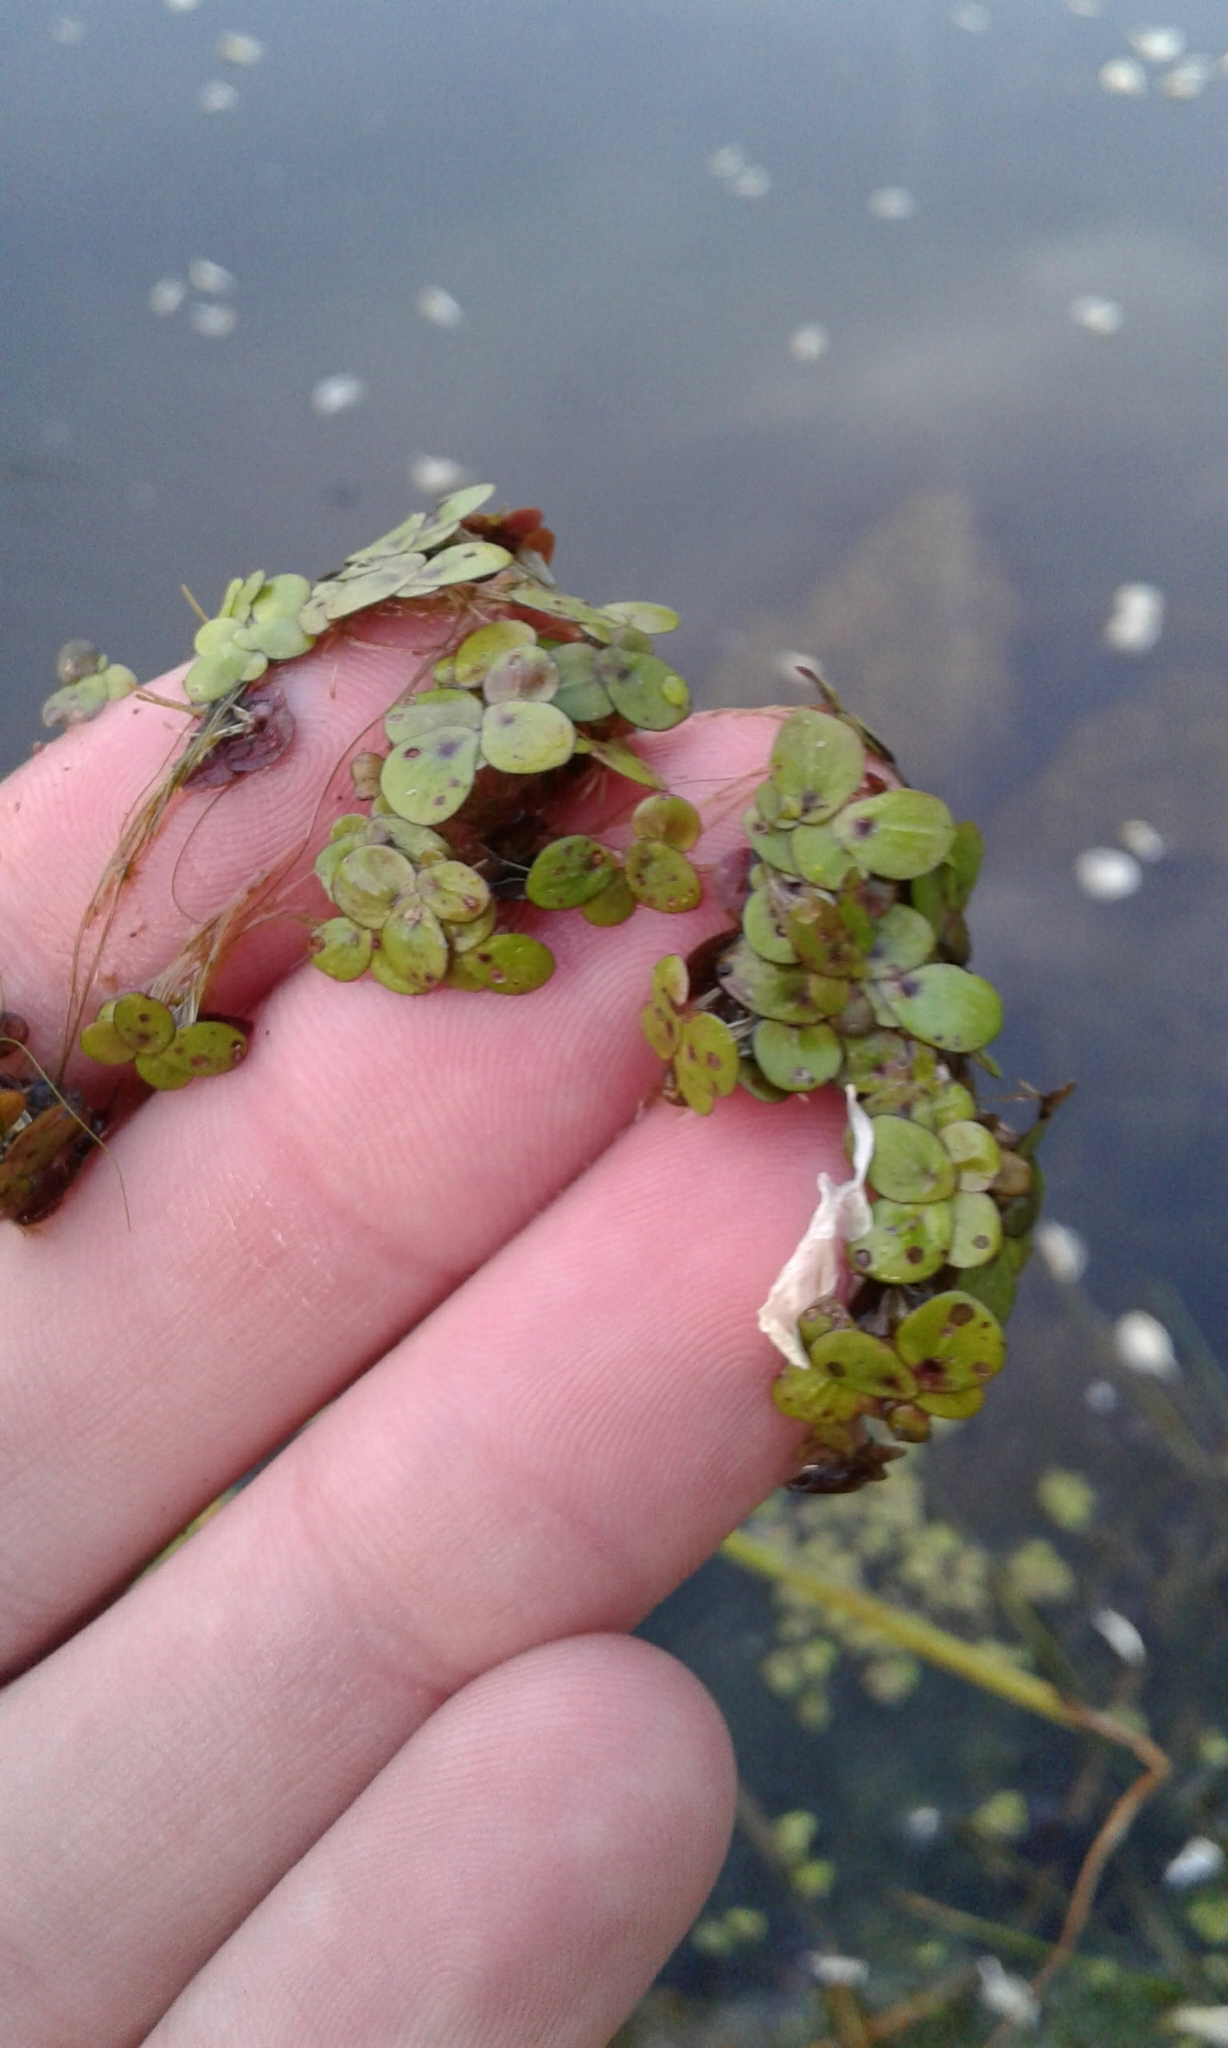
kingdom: Plantae
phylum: Tracheophyta
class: Liliopsida
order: Alismatales
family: Araceae
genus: Spirodela
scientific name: Spirodela polyrhiza
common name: Great duckweed
